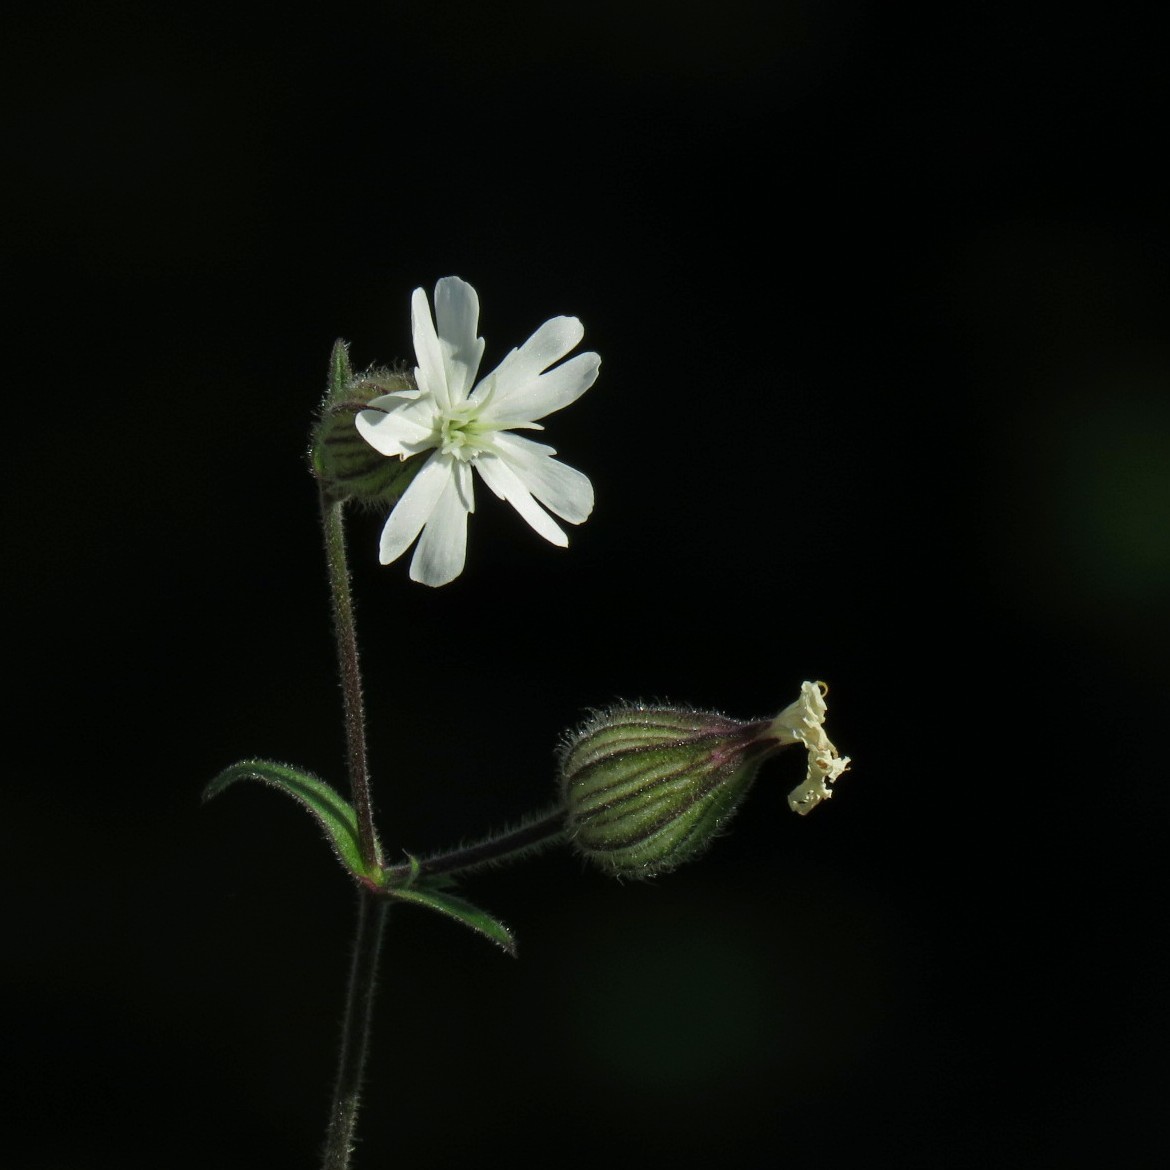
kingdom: Plantae
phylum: Tracheophyta
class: Magnoliopsida
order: Caryophyllales
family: Caryophyllaceae
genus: Silene
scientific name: Silene latifolia
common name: White campion
